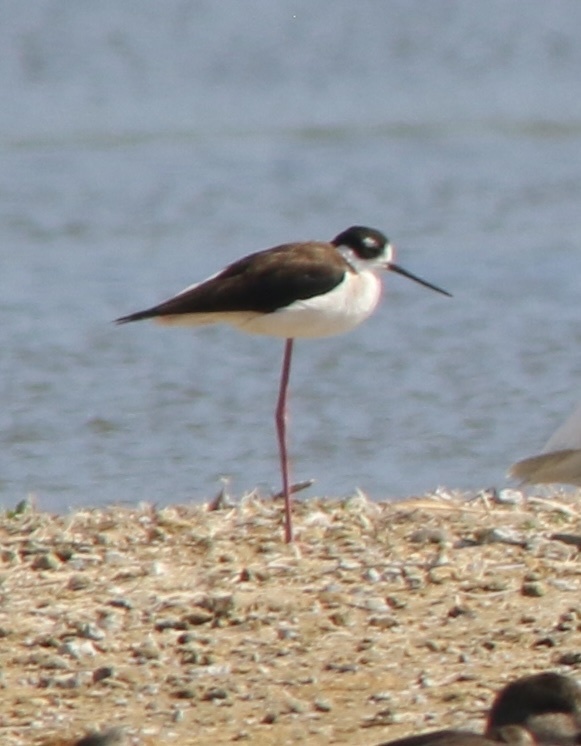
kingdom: Animalia
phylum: Chordata
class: Aves
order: Charadriiformes
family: Recurvirostridae
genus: Himantopus
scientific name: Himantopus mexicanus
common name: Black-necked stilt
